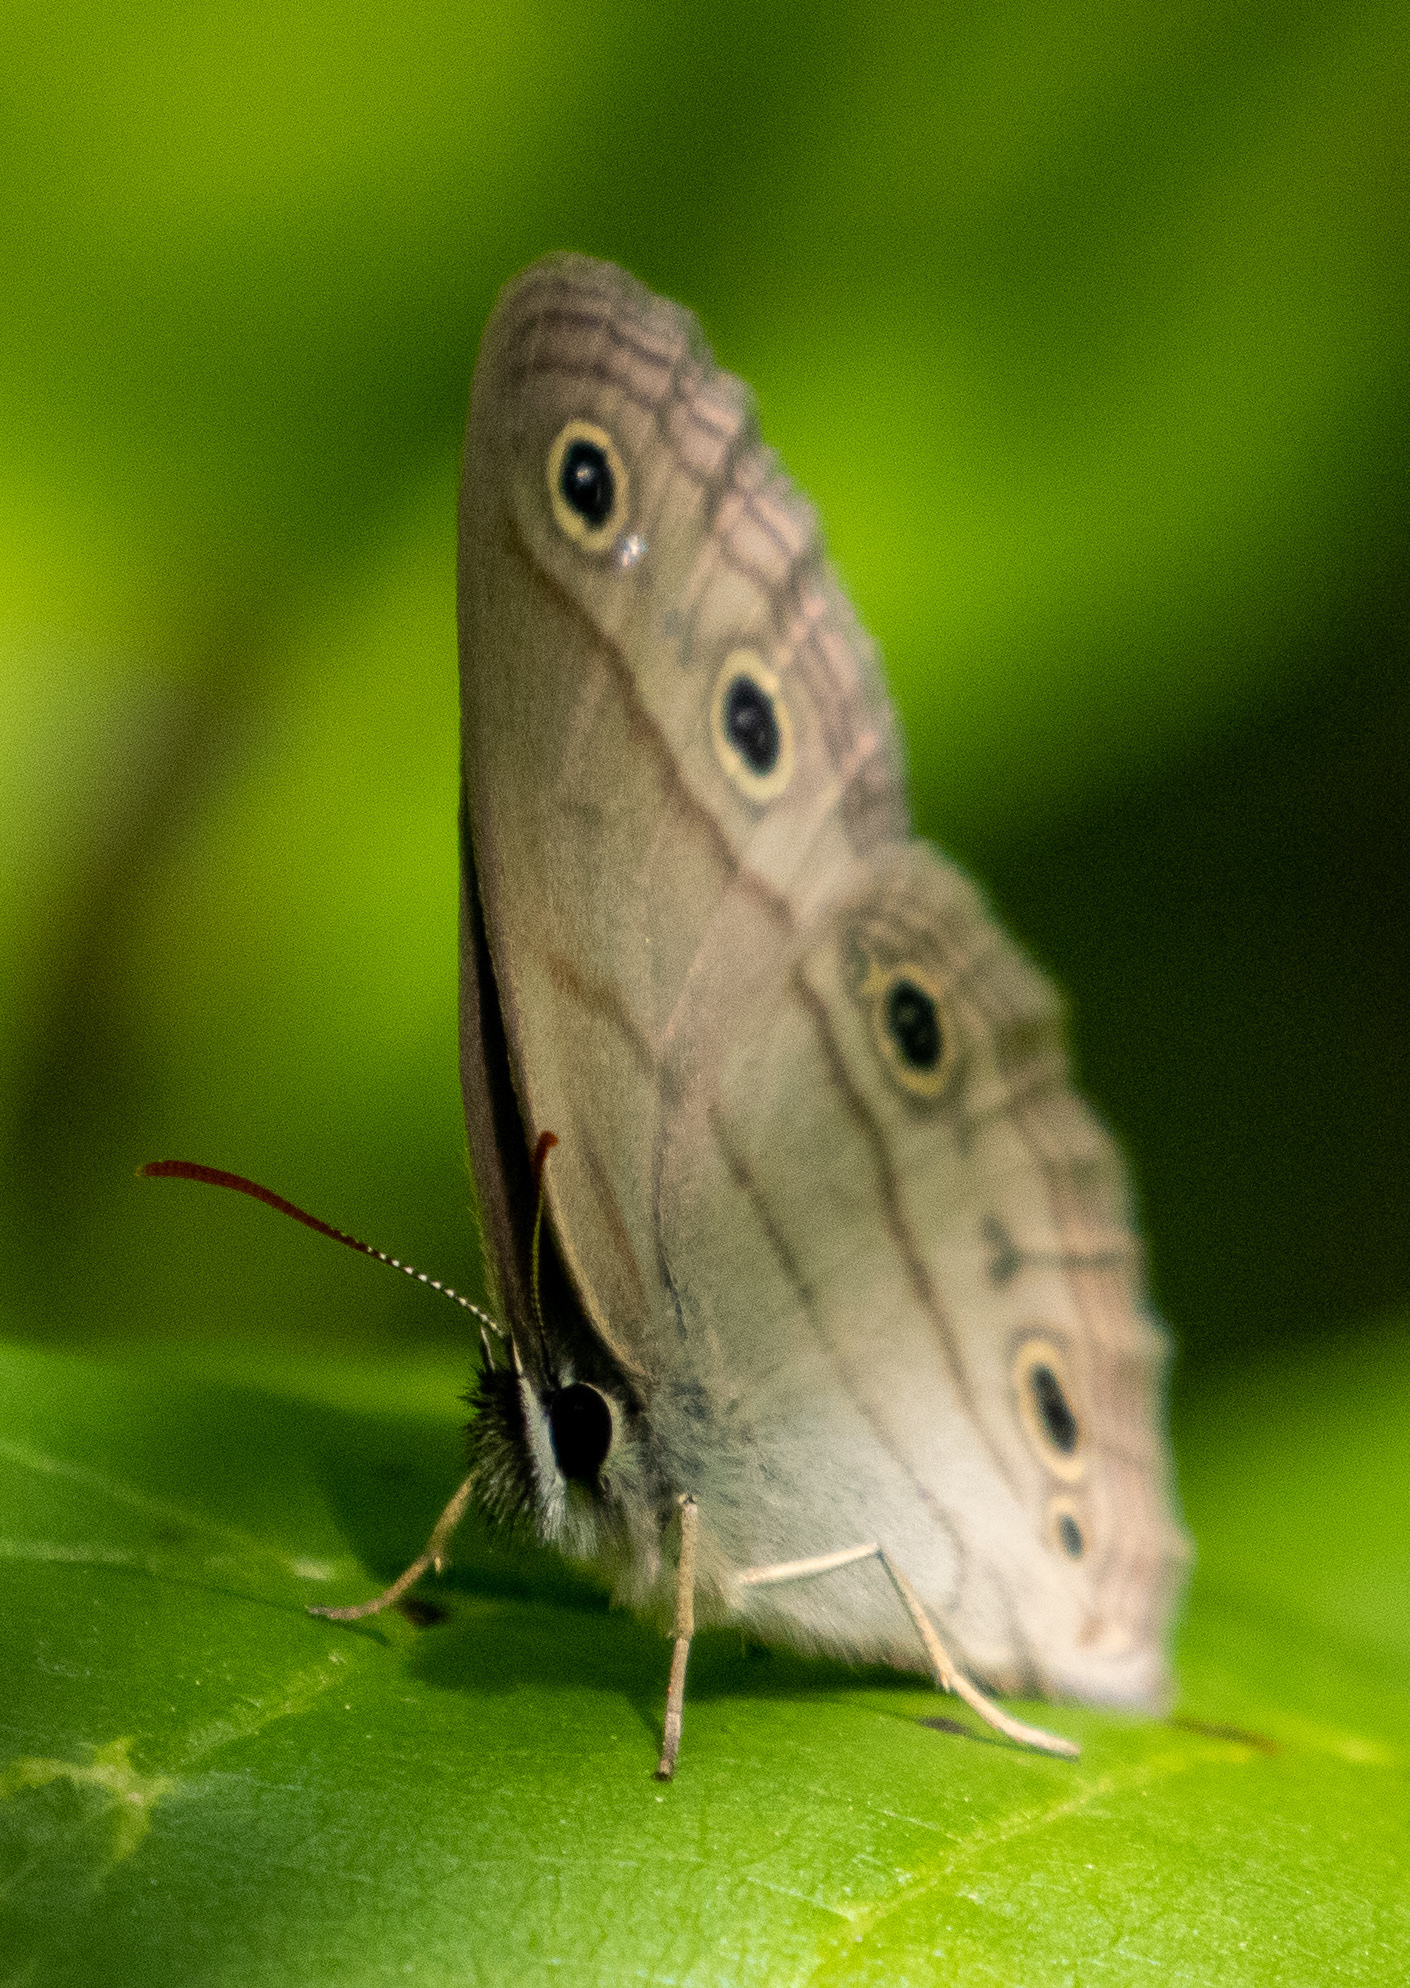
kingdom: Animalia
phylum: Arthropoda
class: Insecta
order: Lepidoptera
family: Nymphalidae
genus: Euptychia
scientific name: Euptychia cymela
